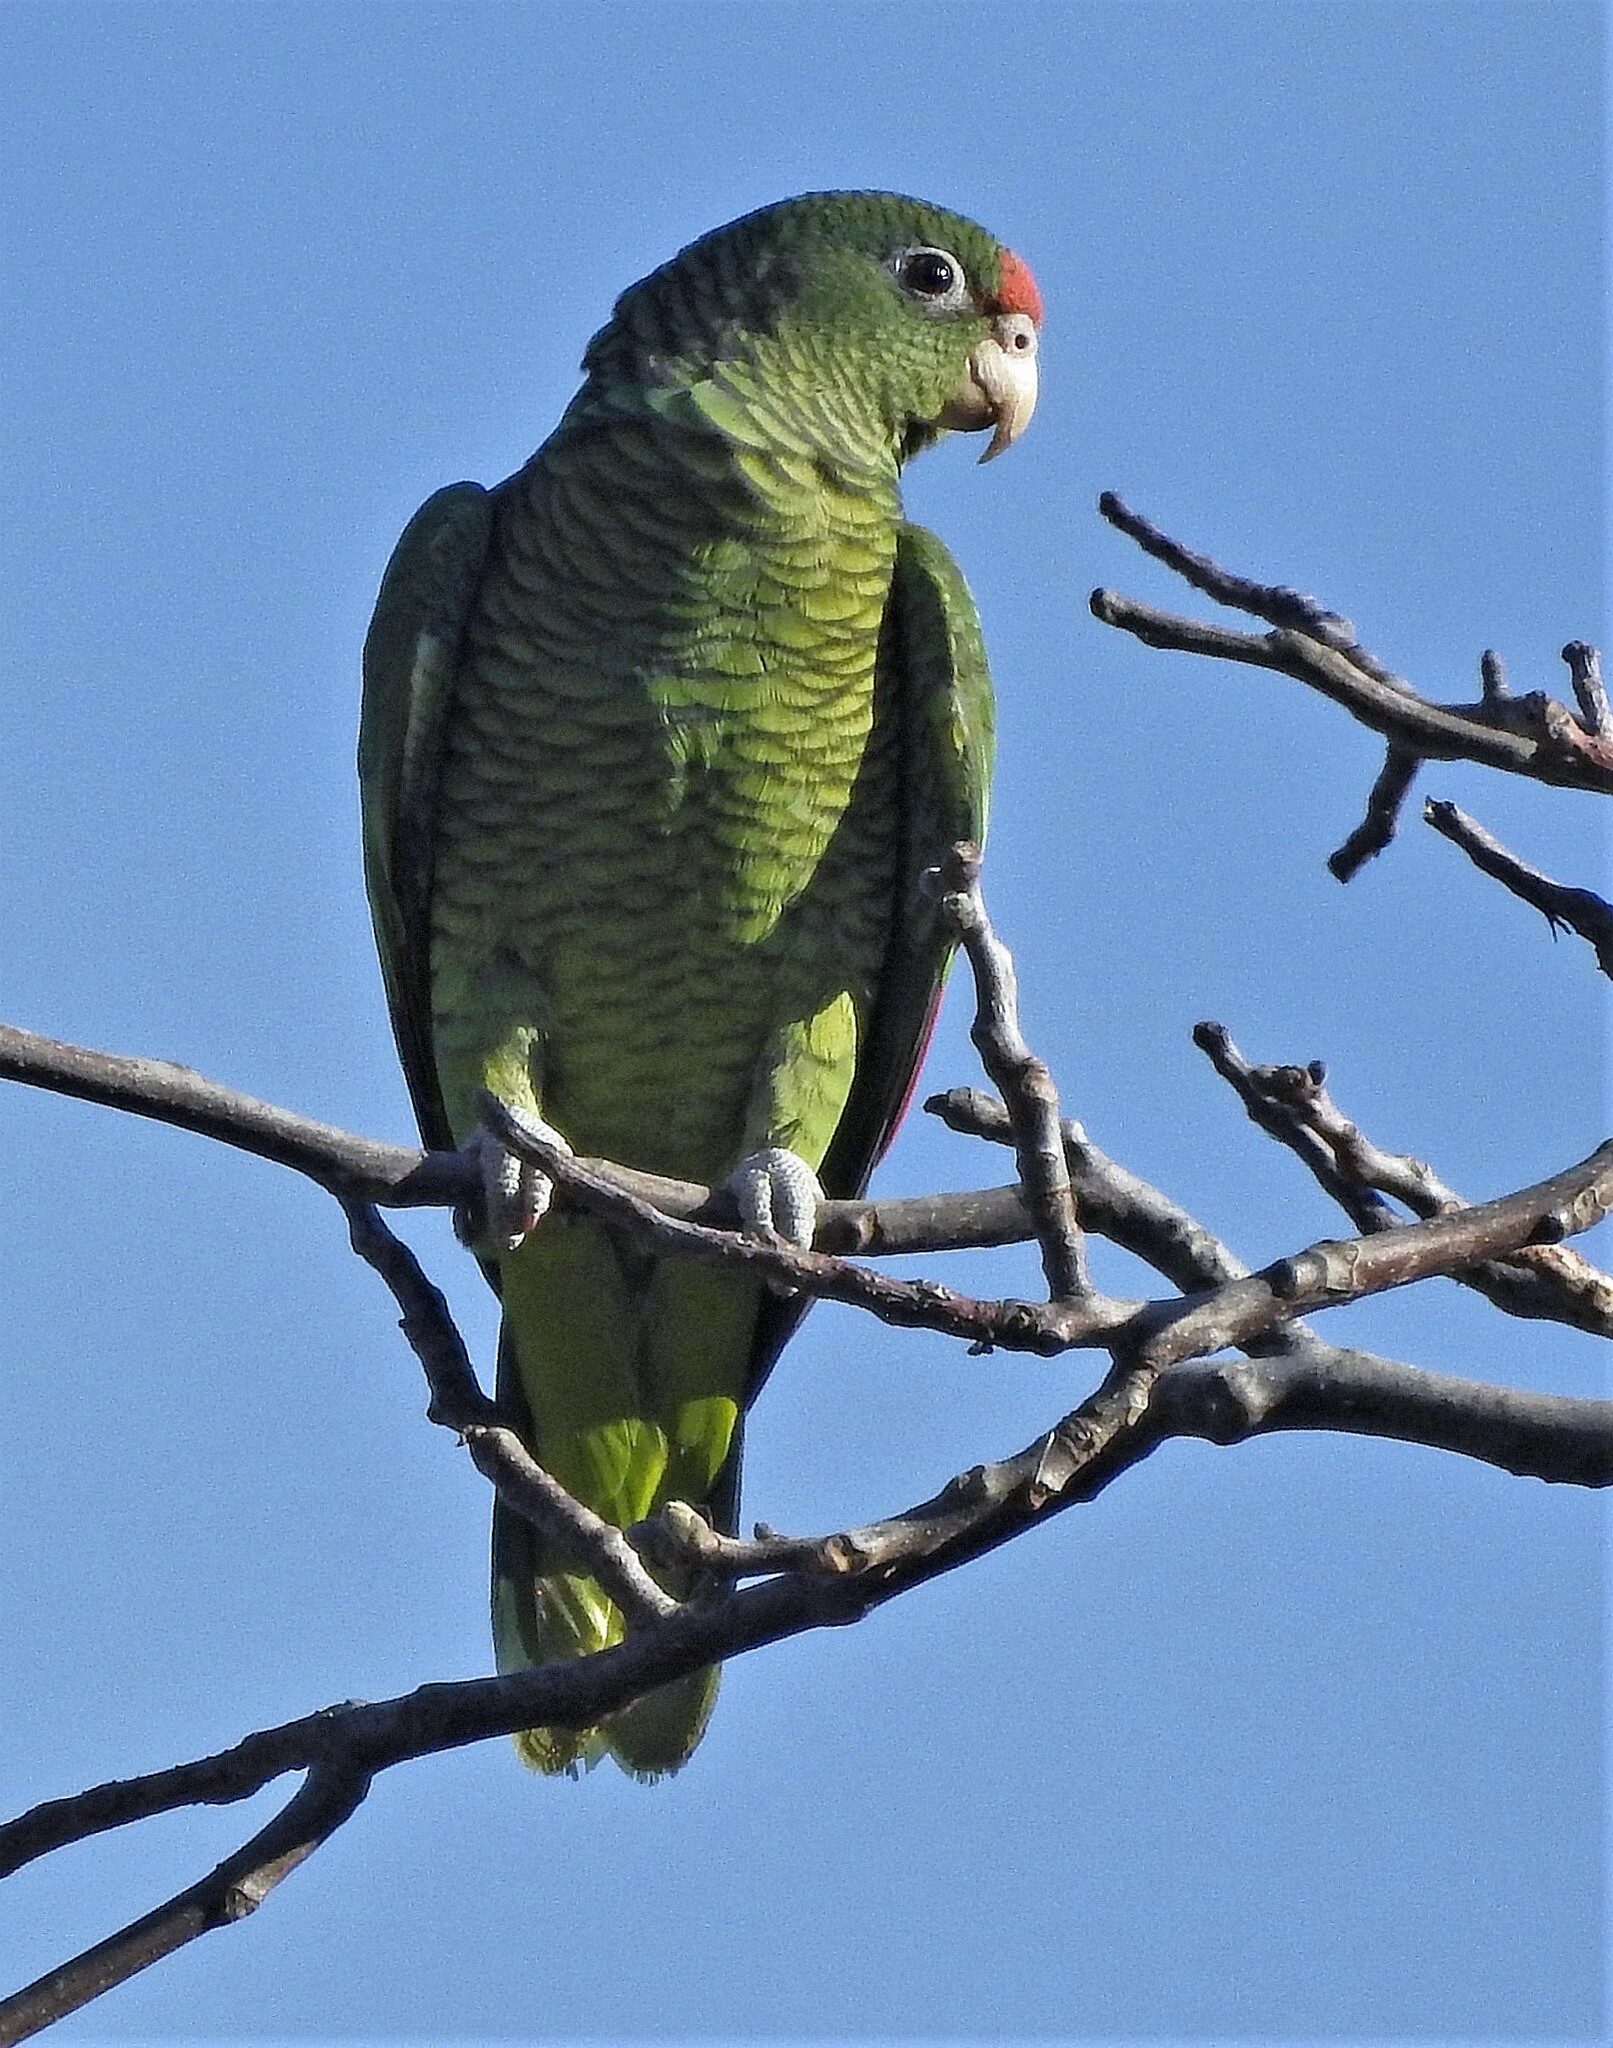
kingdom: Animalia
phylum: Chordata
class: Aves
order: Psittaciformes
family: Psittacidae
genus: Amazona
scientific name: Amazona tucumana
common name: Tucuman amazon
